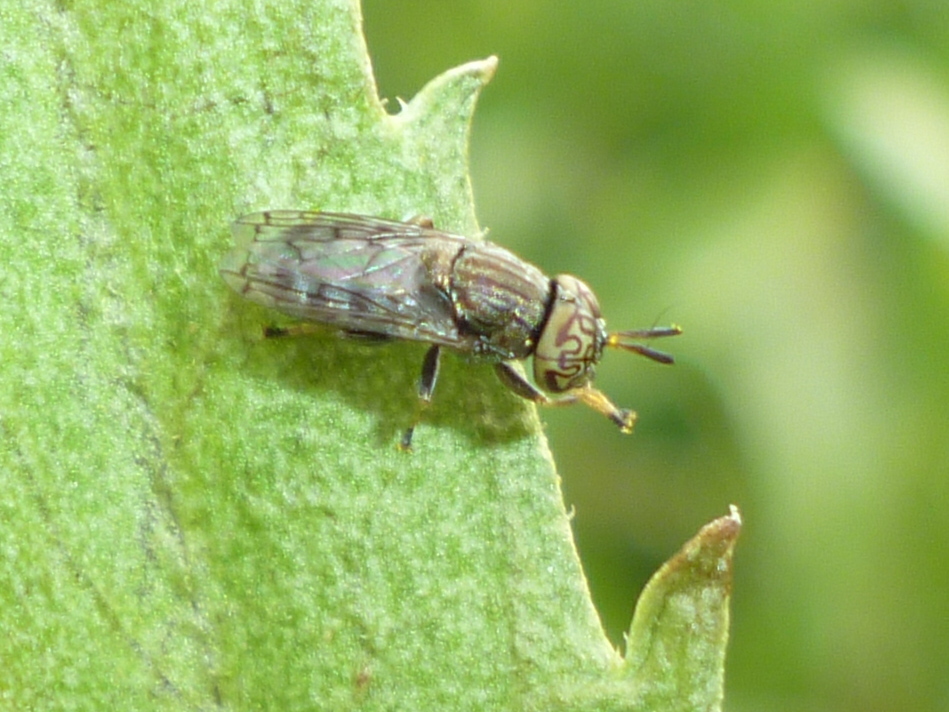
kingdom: Animalia
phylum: Arthropoda
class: Insecta
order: Diptera
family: Syrphidae
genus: Orthonevra
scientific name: Orthonevra nitida
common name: Wavy mucksucker
